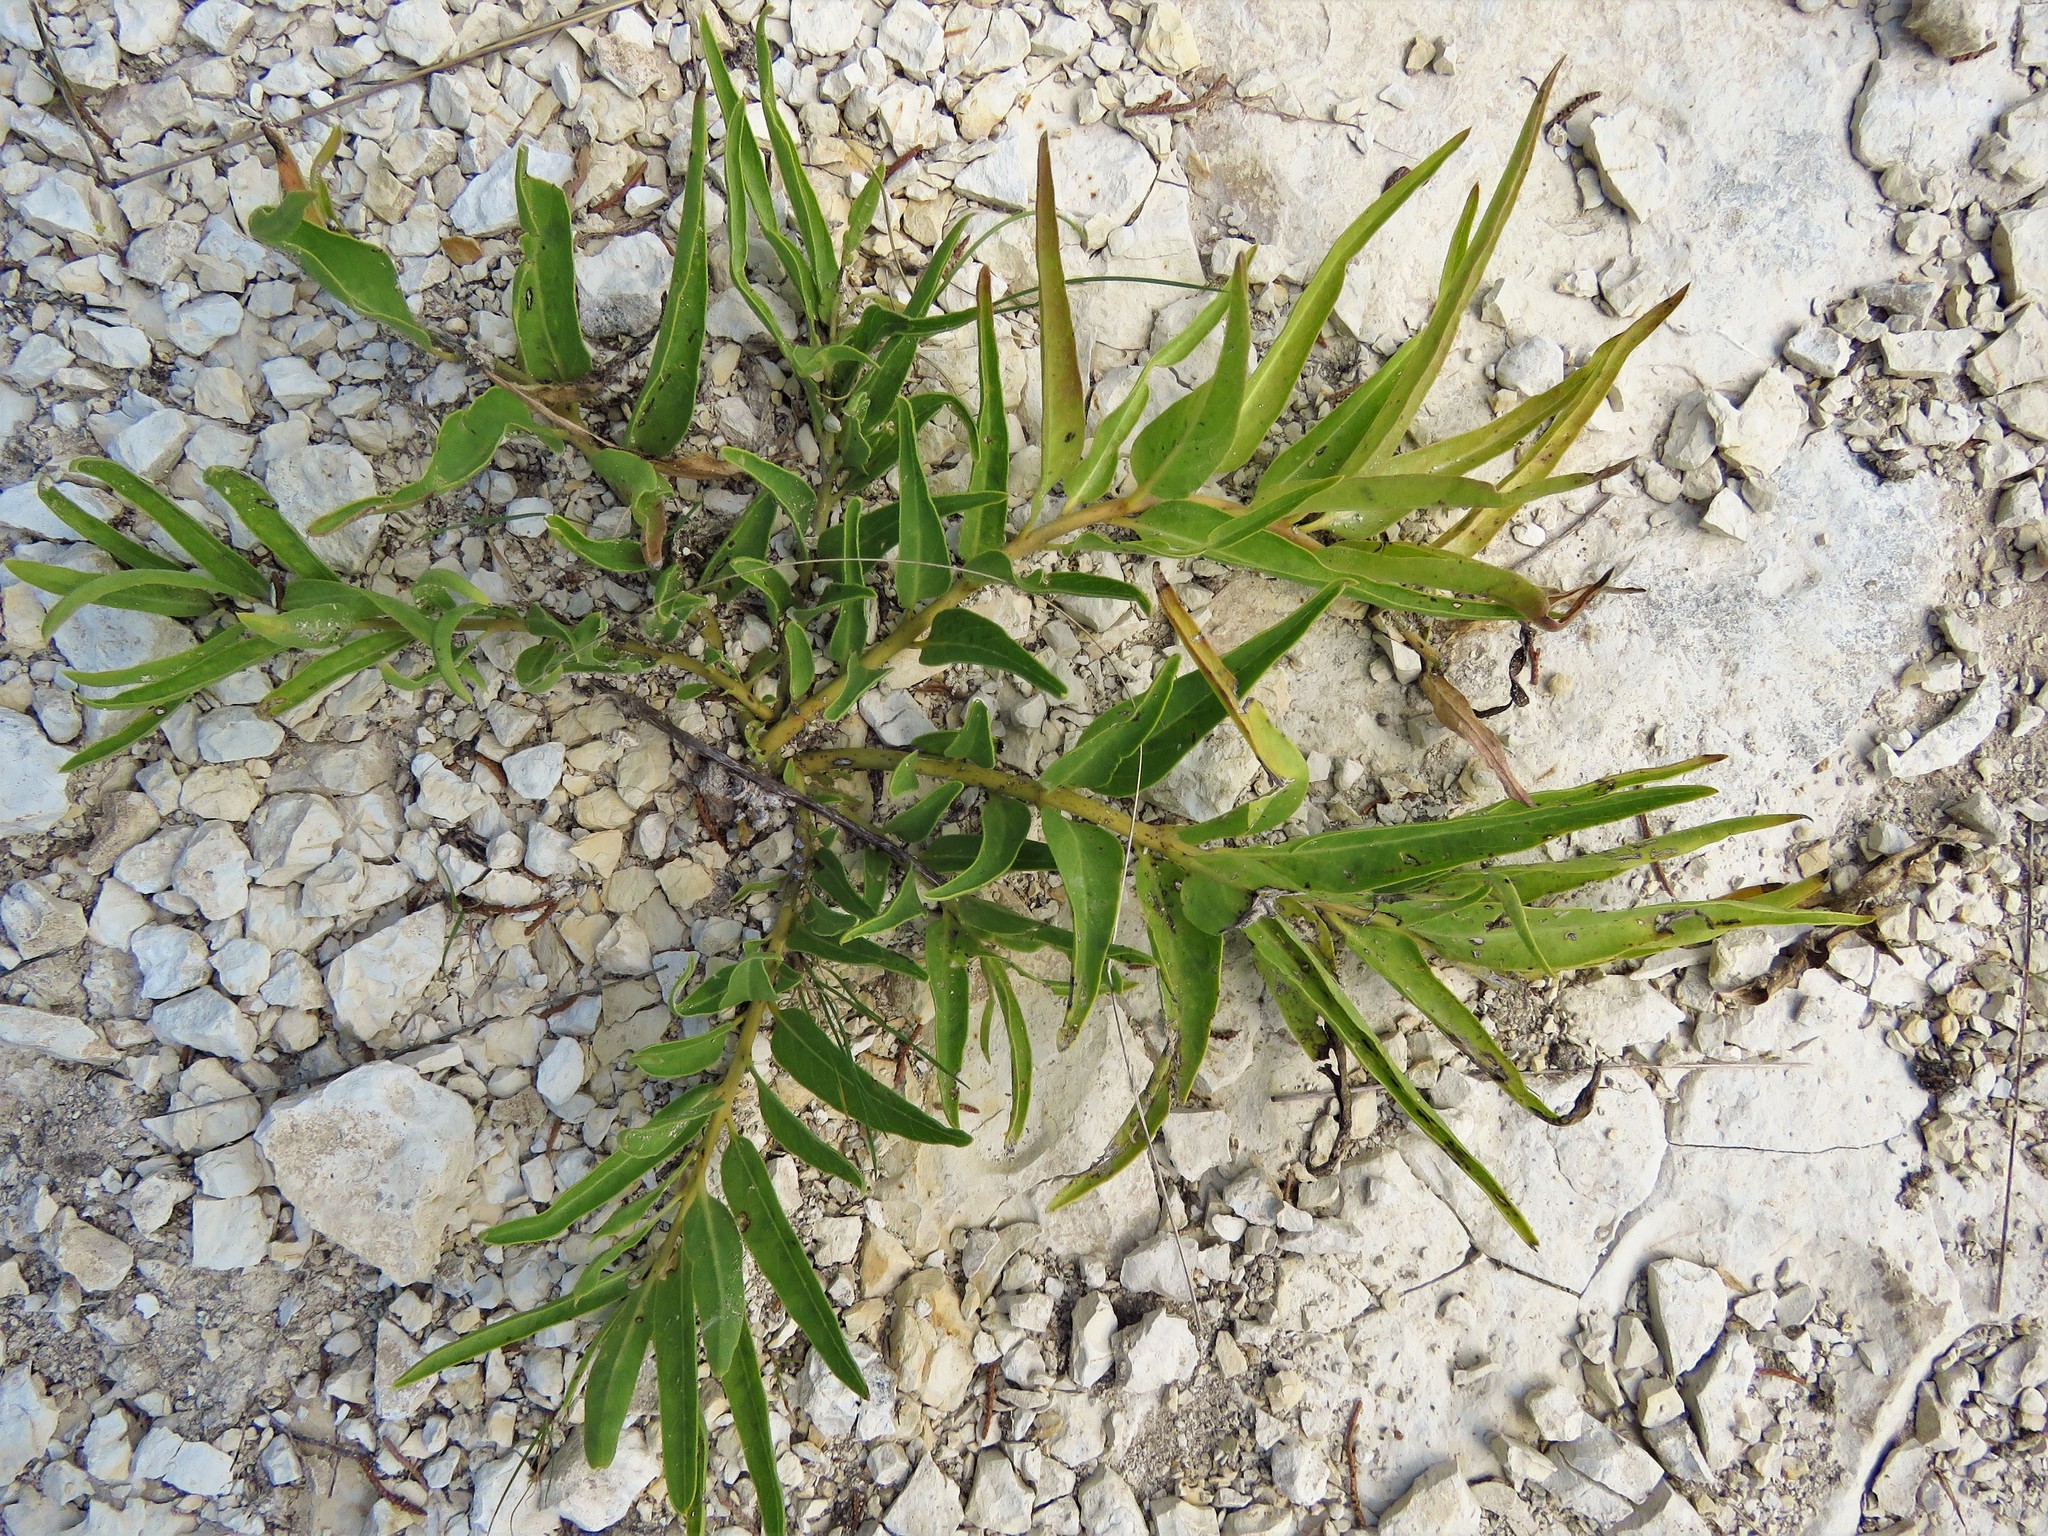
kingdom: Plantae
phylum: Tracheophyta
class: Magnoliopsida
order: Gentianales
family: Apocynaceae
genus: Asclepias
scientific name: Asclepias asperula
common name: Antelope horns
